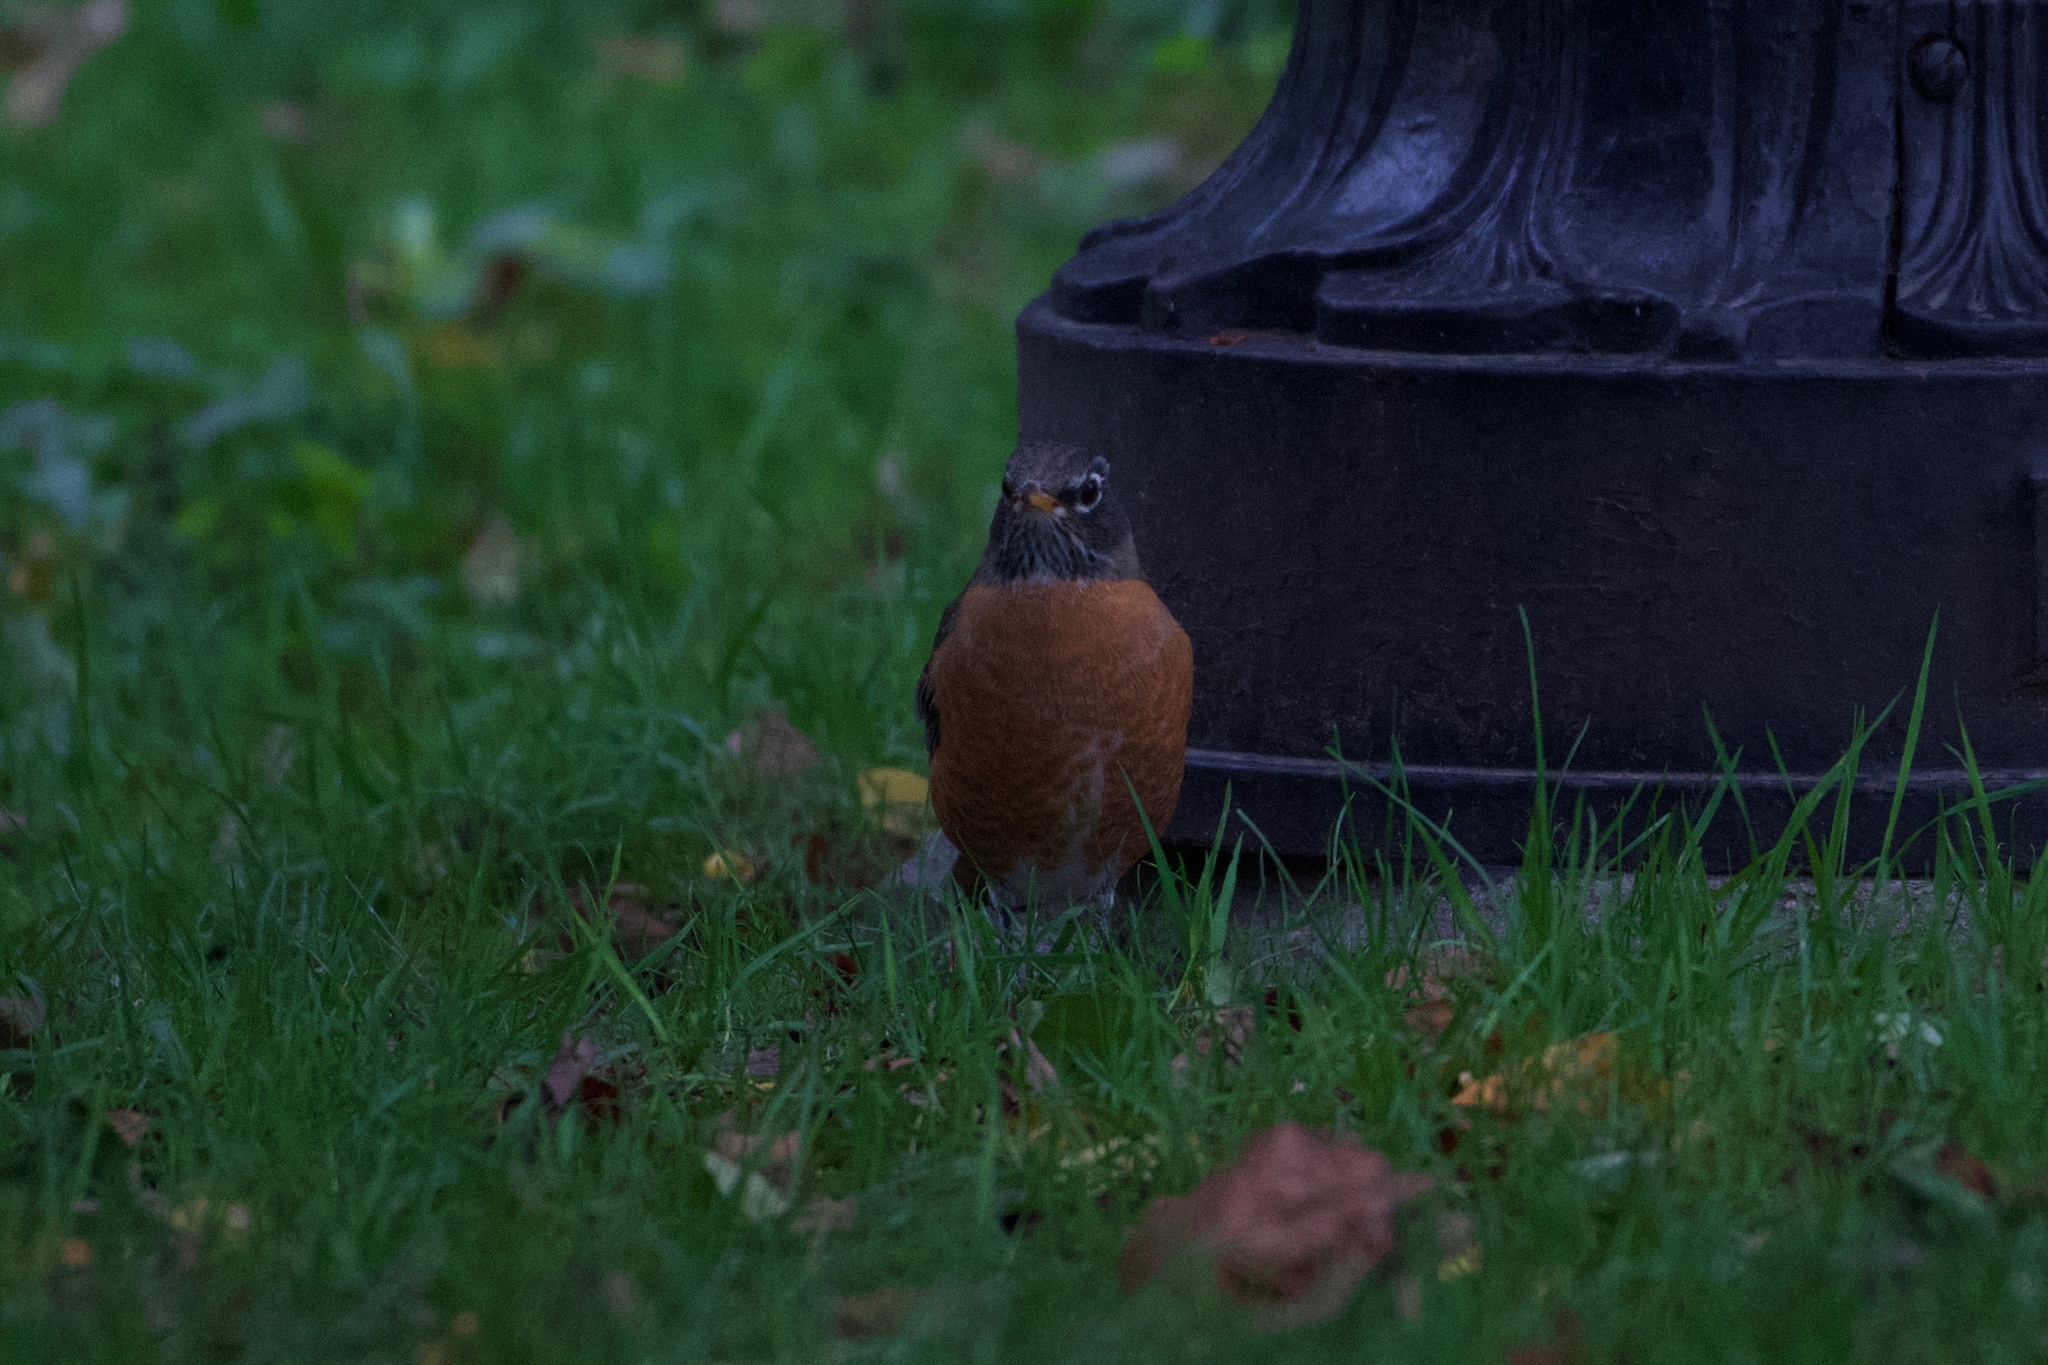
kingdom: Animalia
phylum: Chordata
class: Aves
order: Passeriformes
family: Turdidae
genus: Turdus
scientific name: Turdus migratorius
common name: American robin
